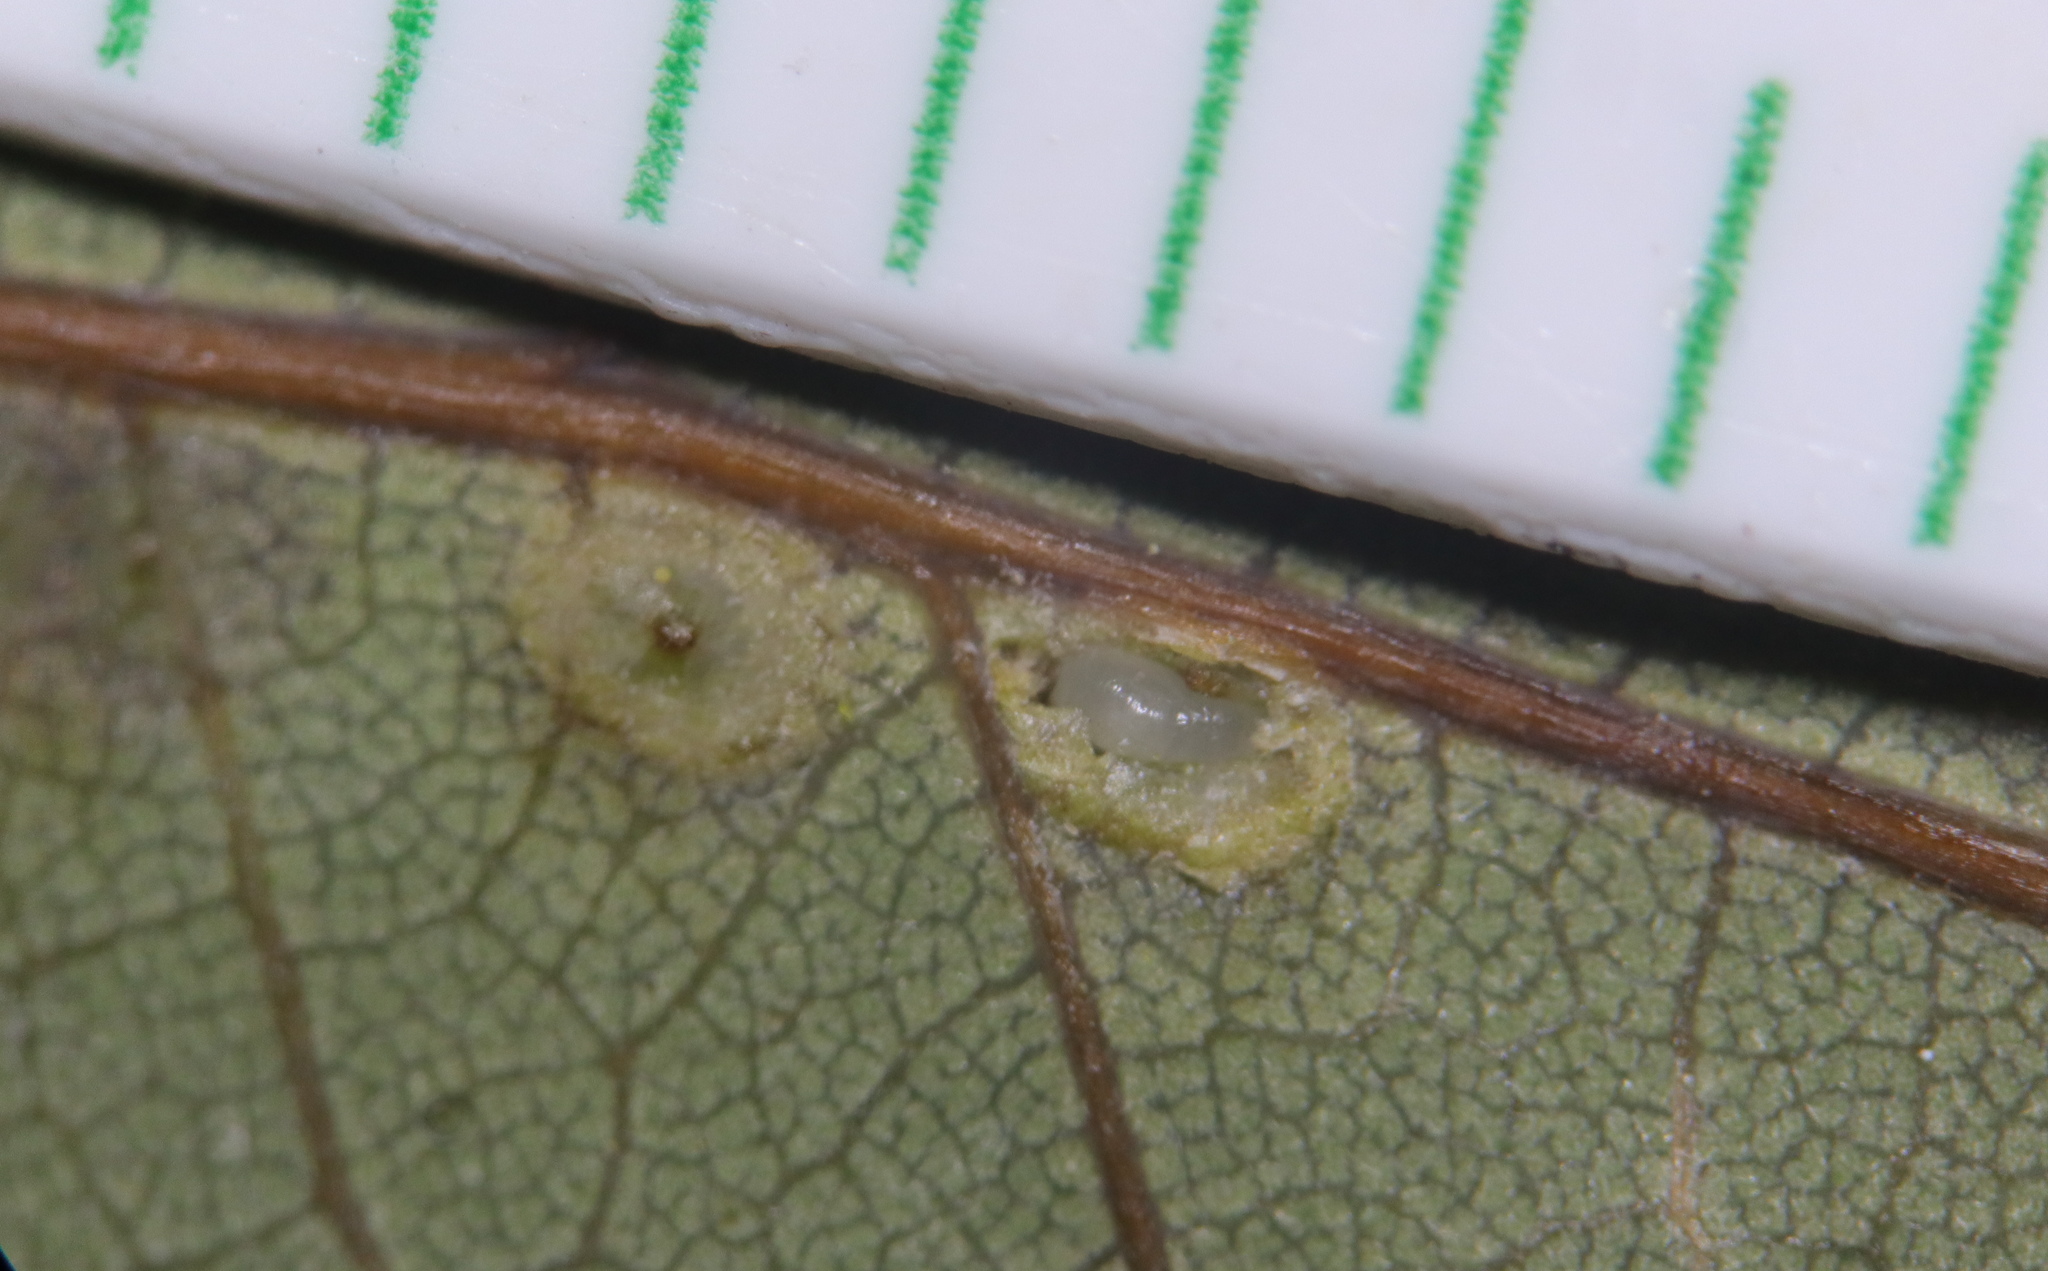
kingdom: Animalia
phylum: Arthropoda
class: Insecta
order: Hymenoptera
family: Cynipidae
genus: Neuroterus
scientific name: Neuroterus niger
